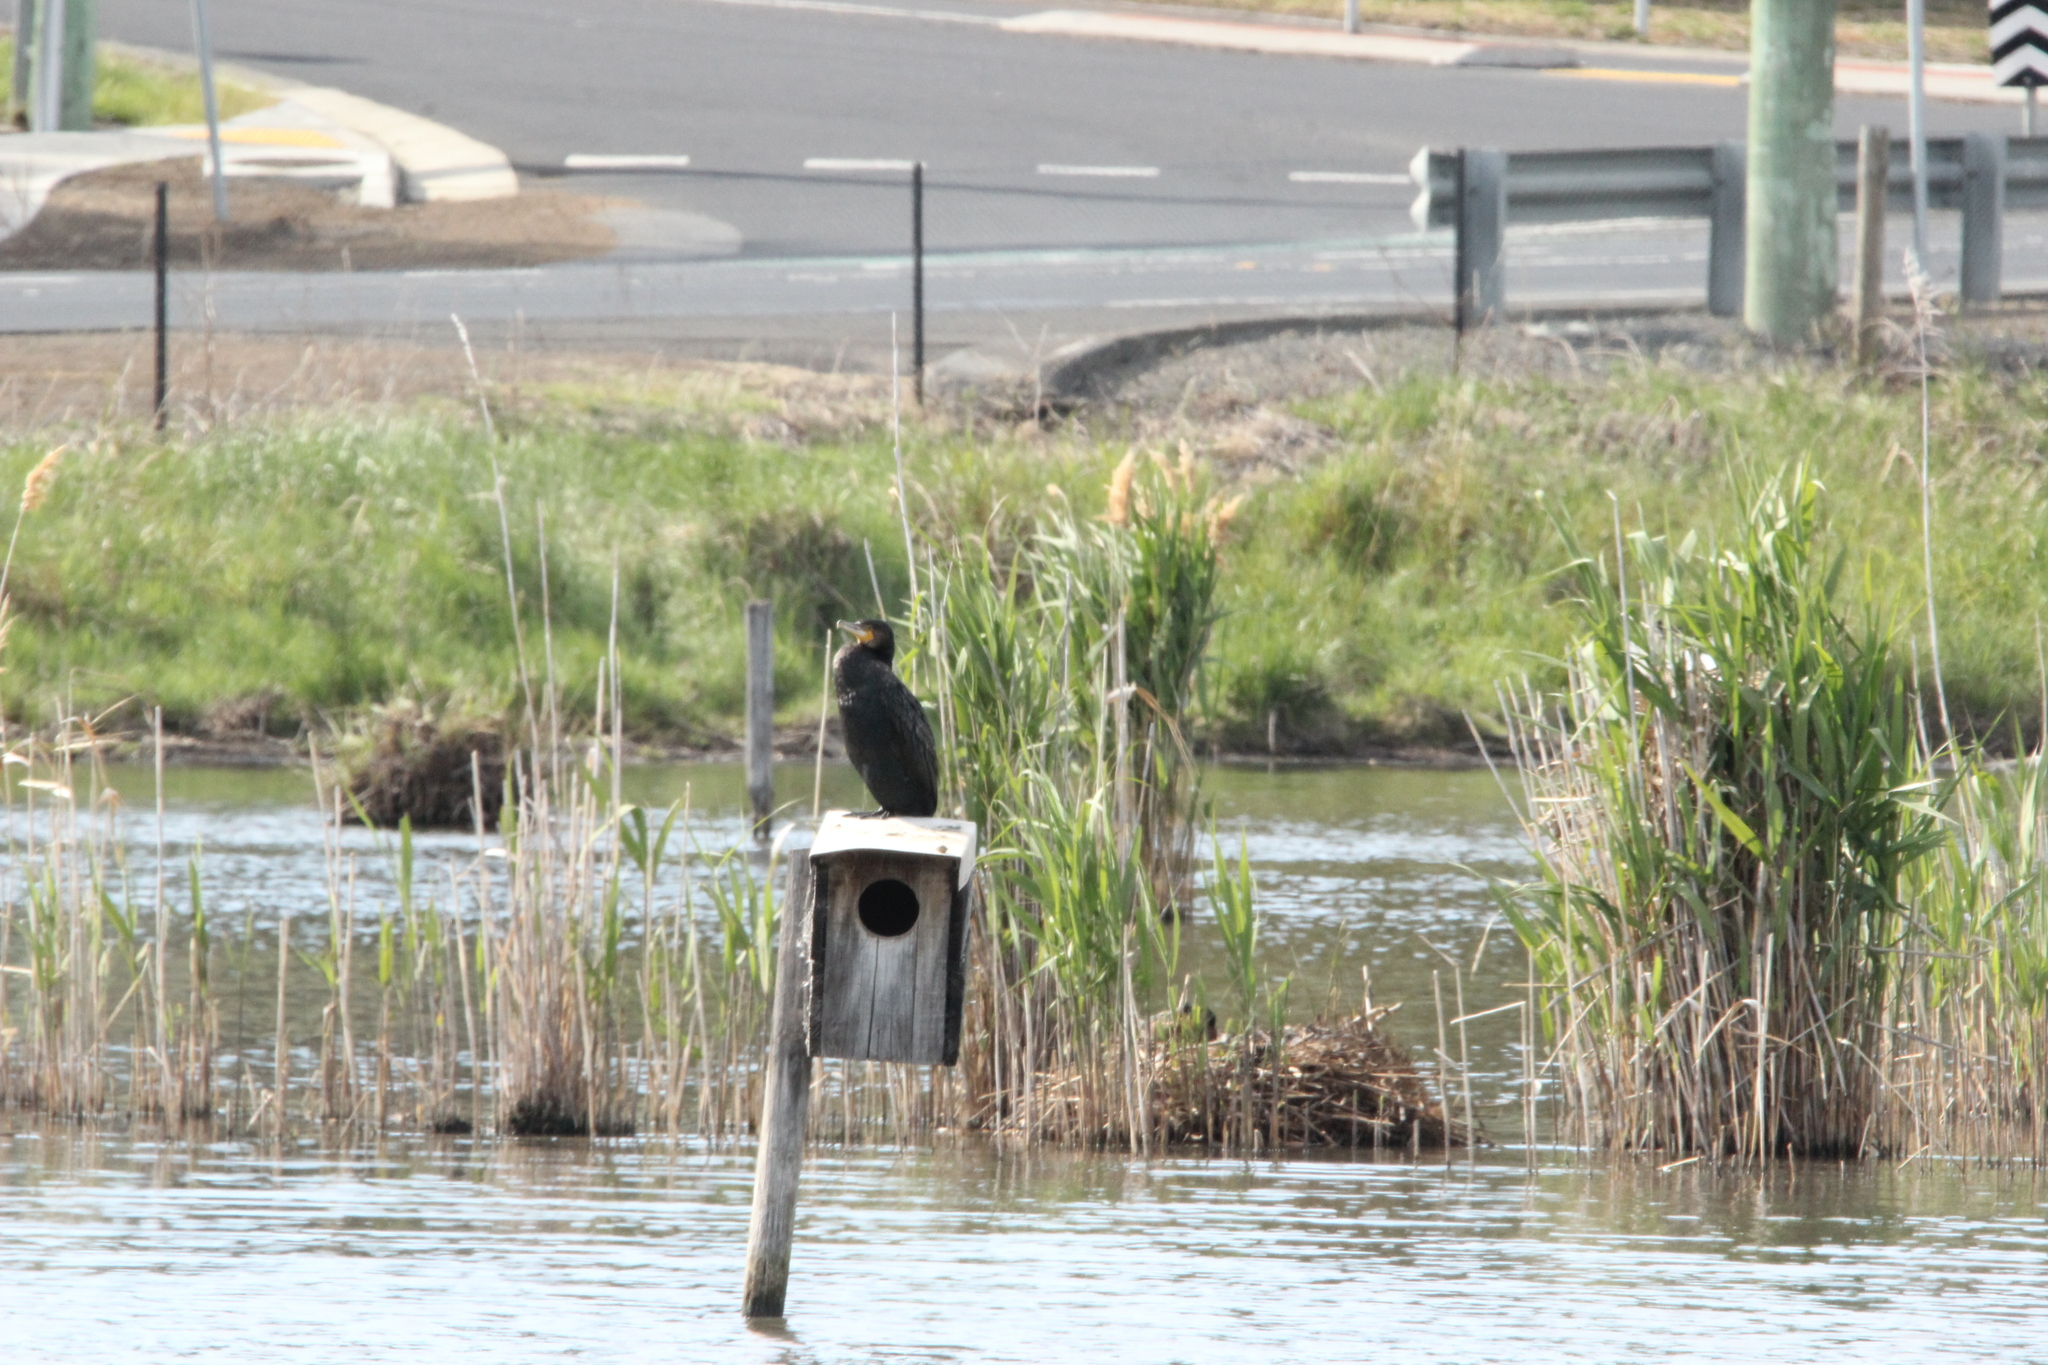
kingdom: Animalia
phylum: Chordata
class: Aves
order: Suliformes
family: Phalacrocoracidae
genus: Phalacrocorax
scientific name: Phalacrocorax carbo
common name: Great cormorant
